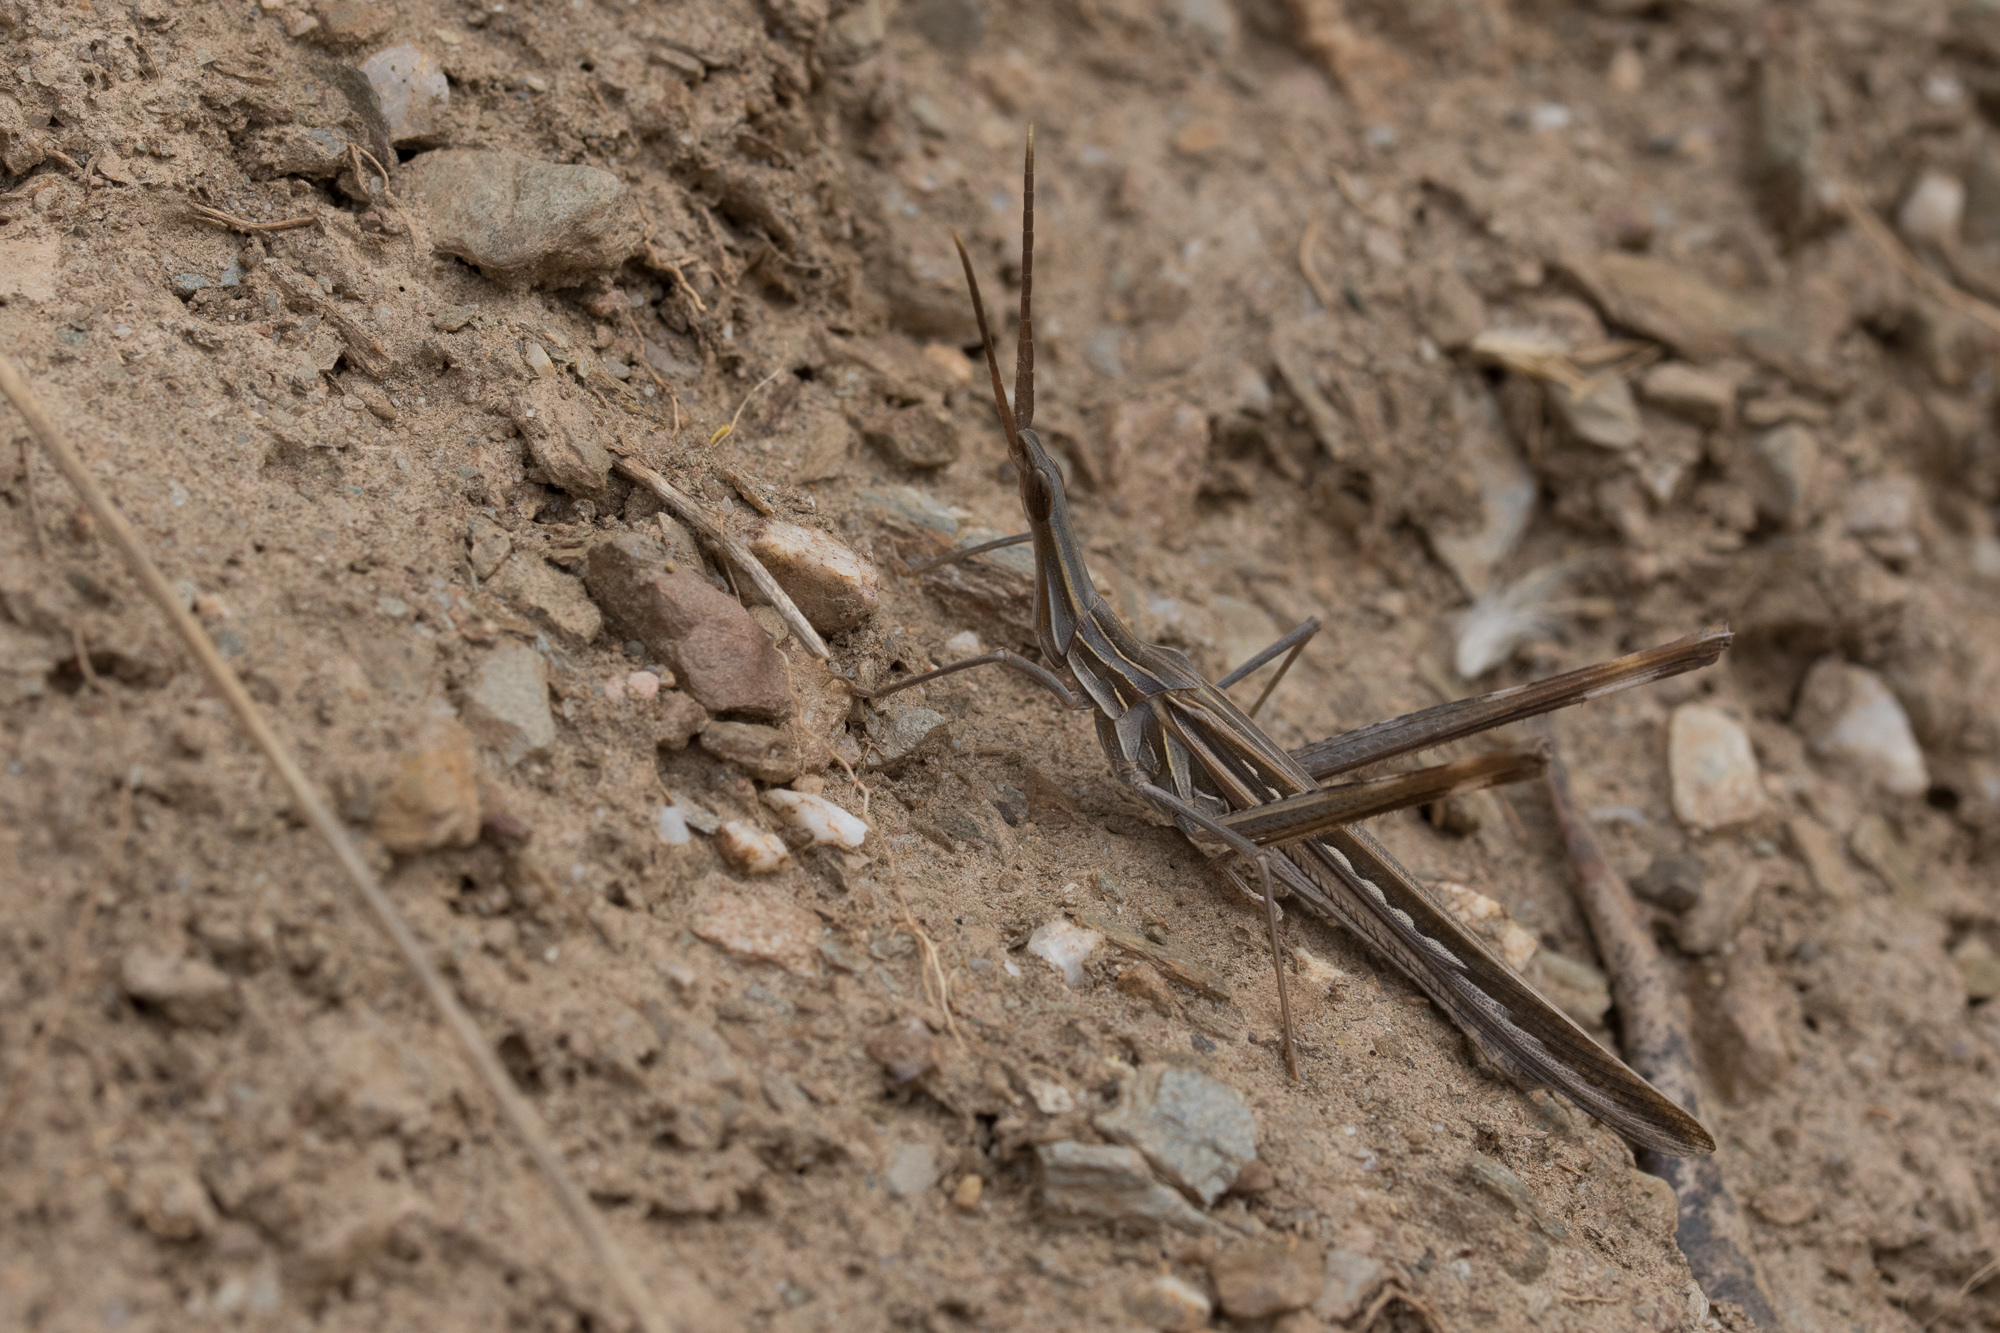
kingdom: Animalia
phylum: Arthropoda
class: Insecta
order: Orthoptera
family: Acrididae
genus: Truxalis
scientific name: Truxalis nasuta
